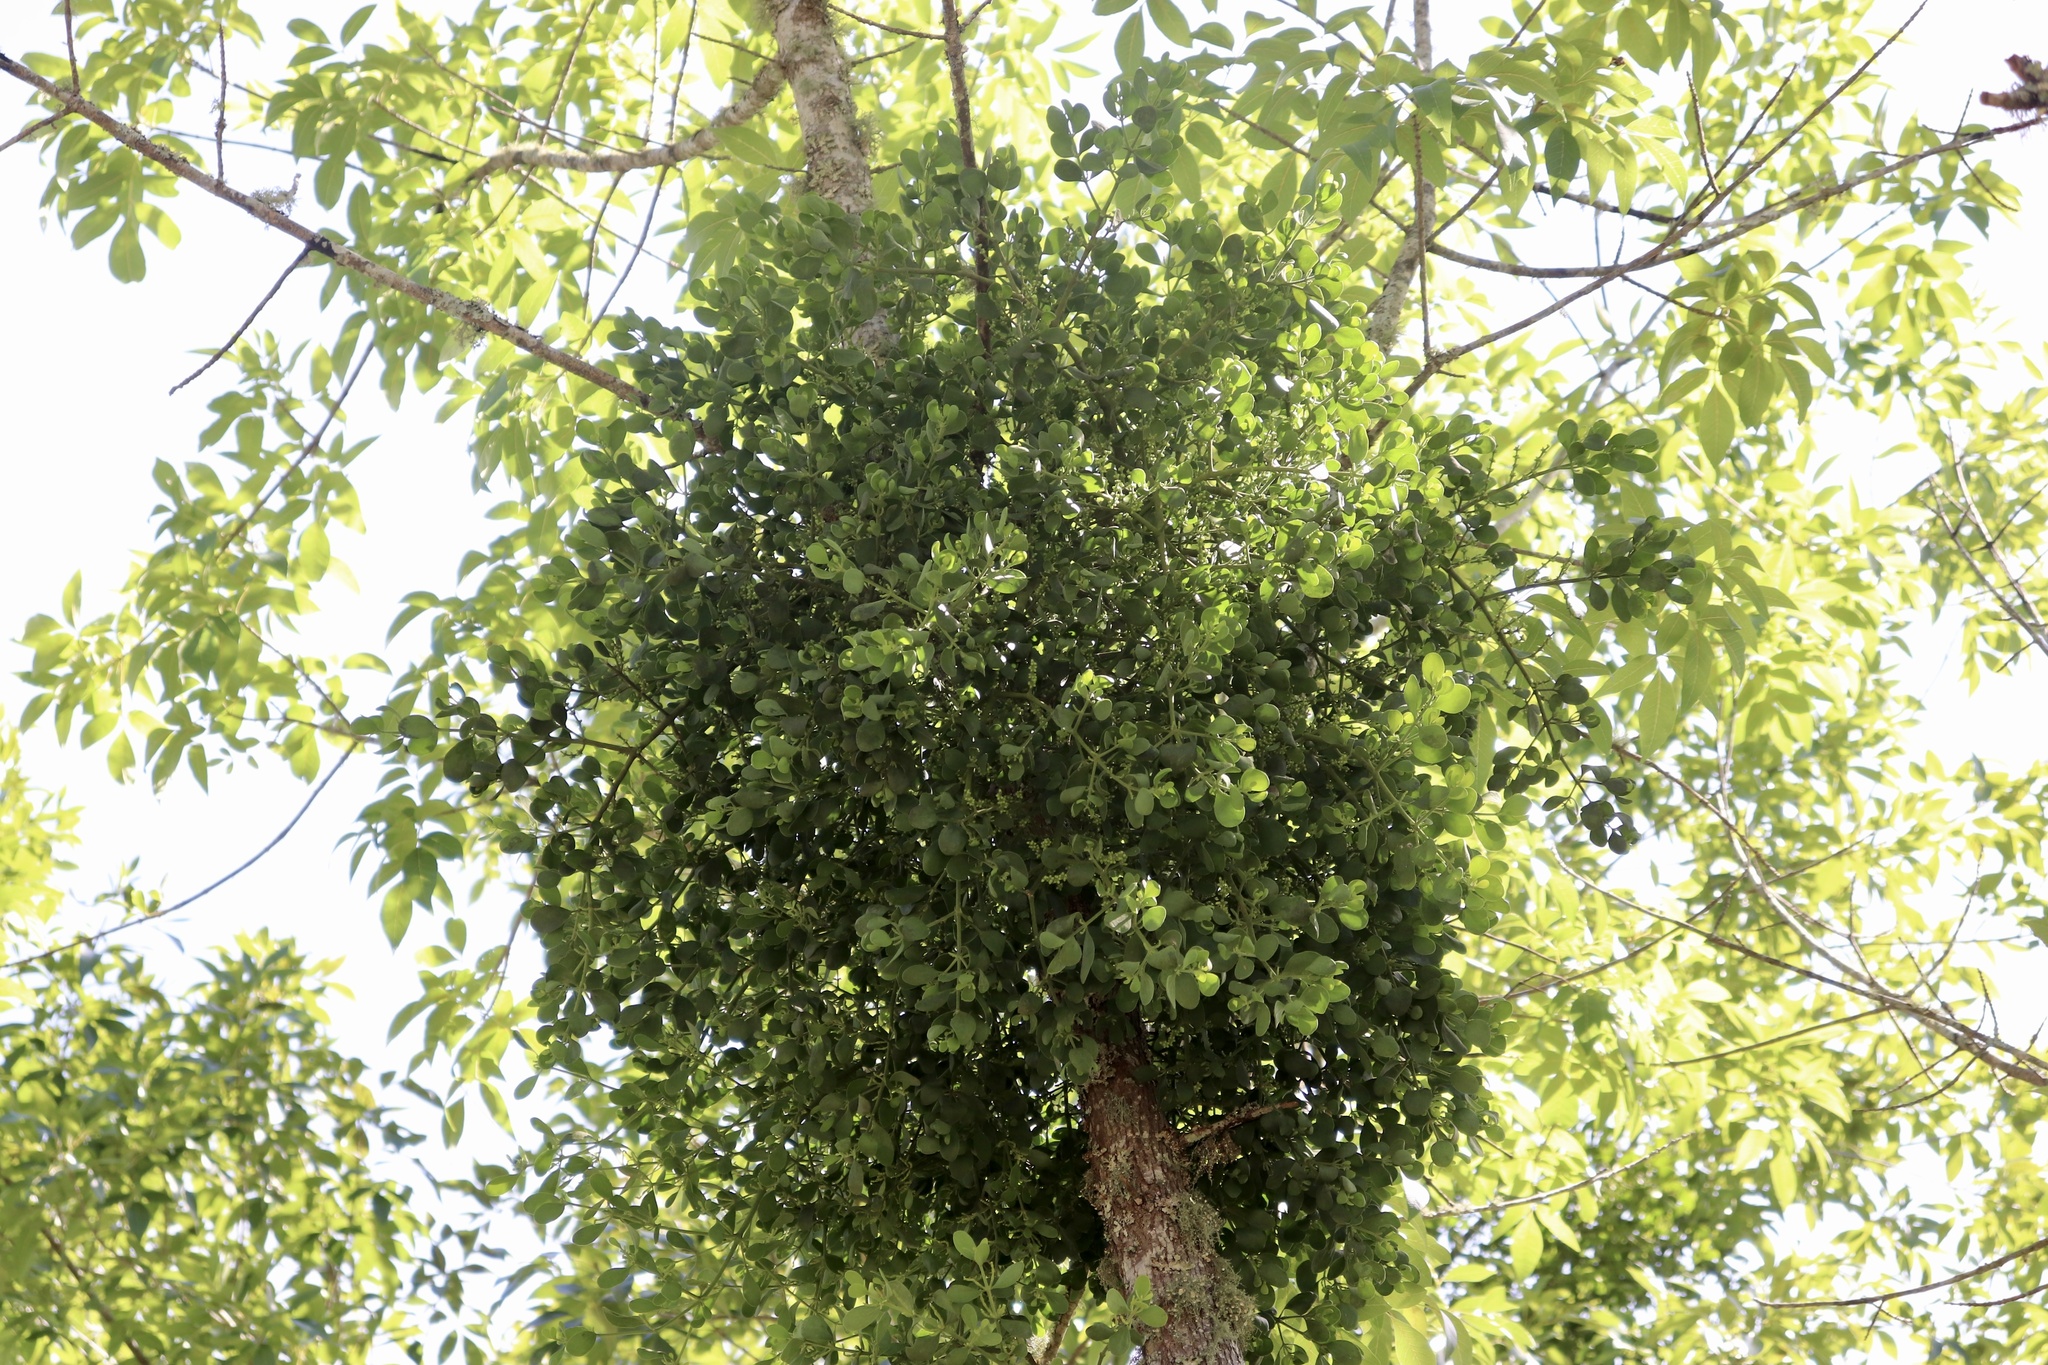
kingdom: Plantae
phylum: Tracheophyta
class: Magnoliopsida
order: Santalales
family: Viscaceae
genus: Phoradendron
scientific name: Phoradendron leucarpum
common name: Pacific mistletoe
